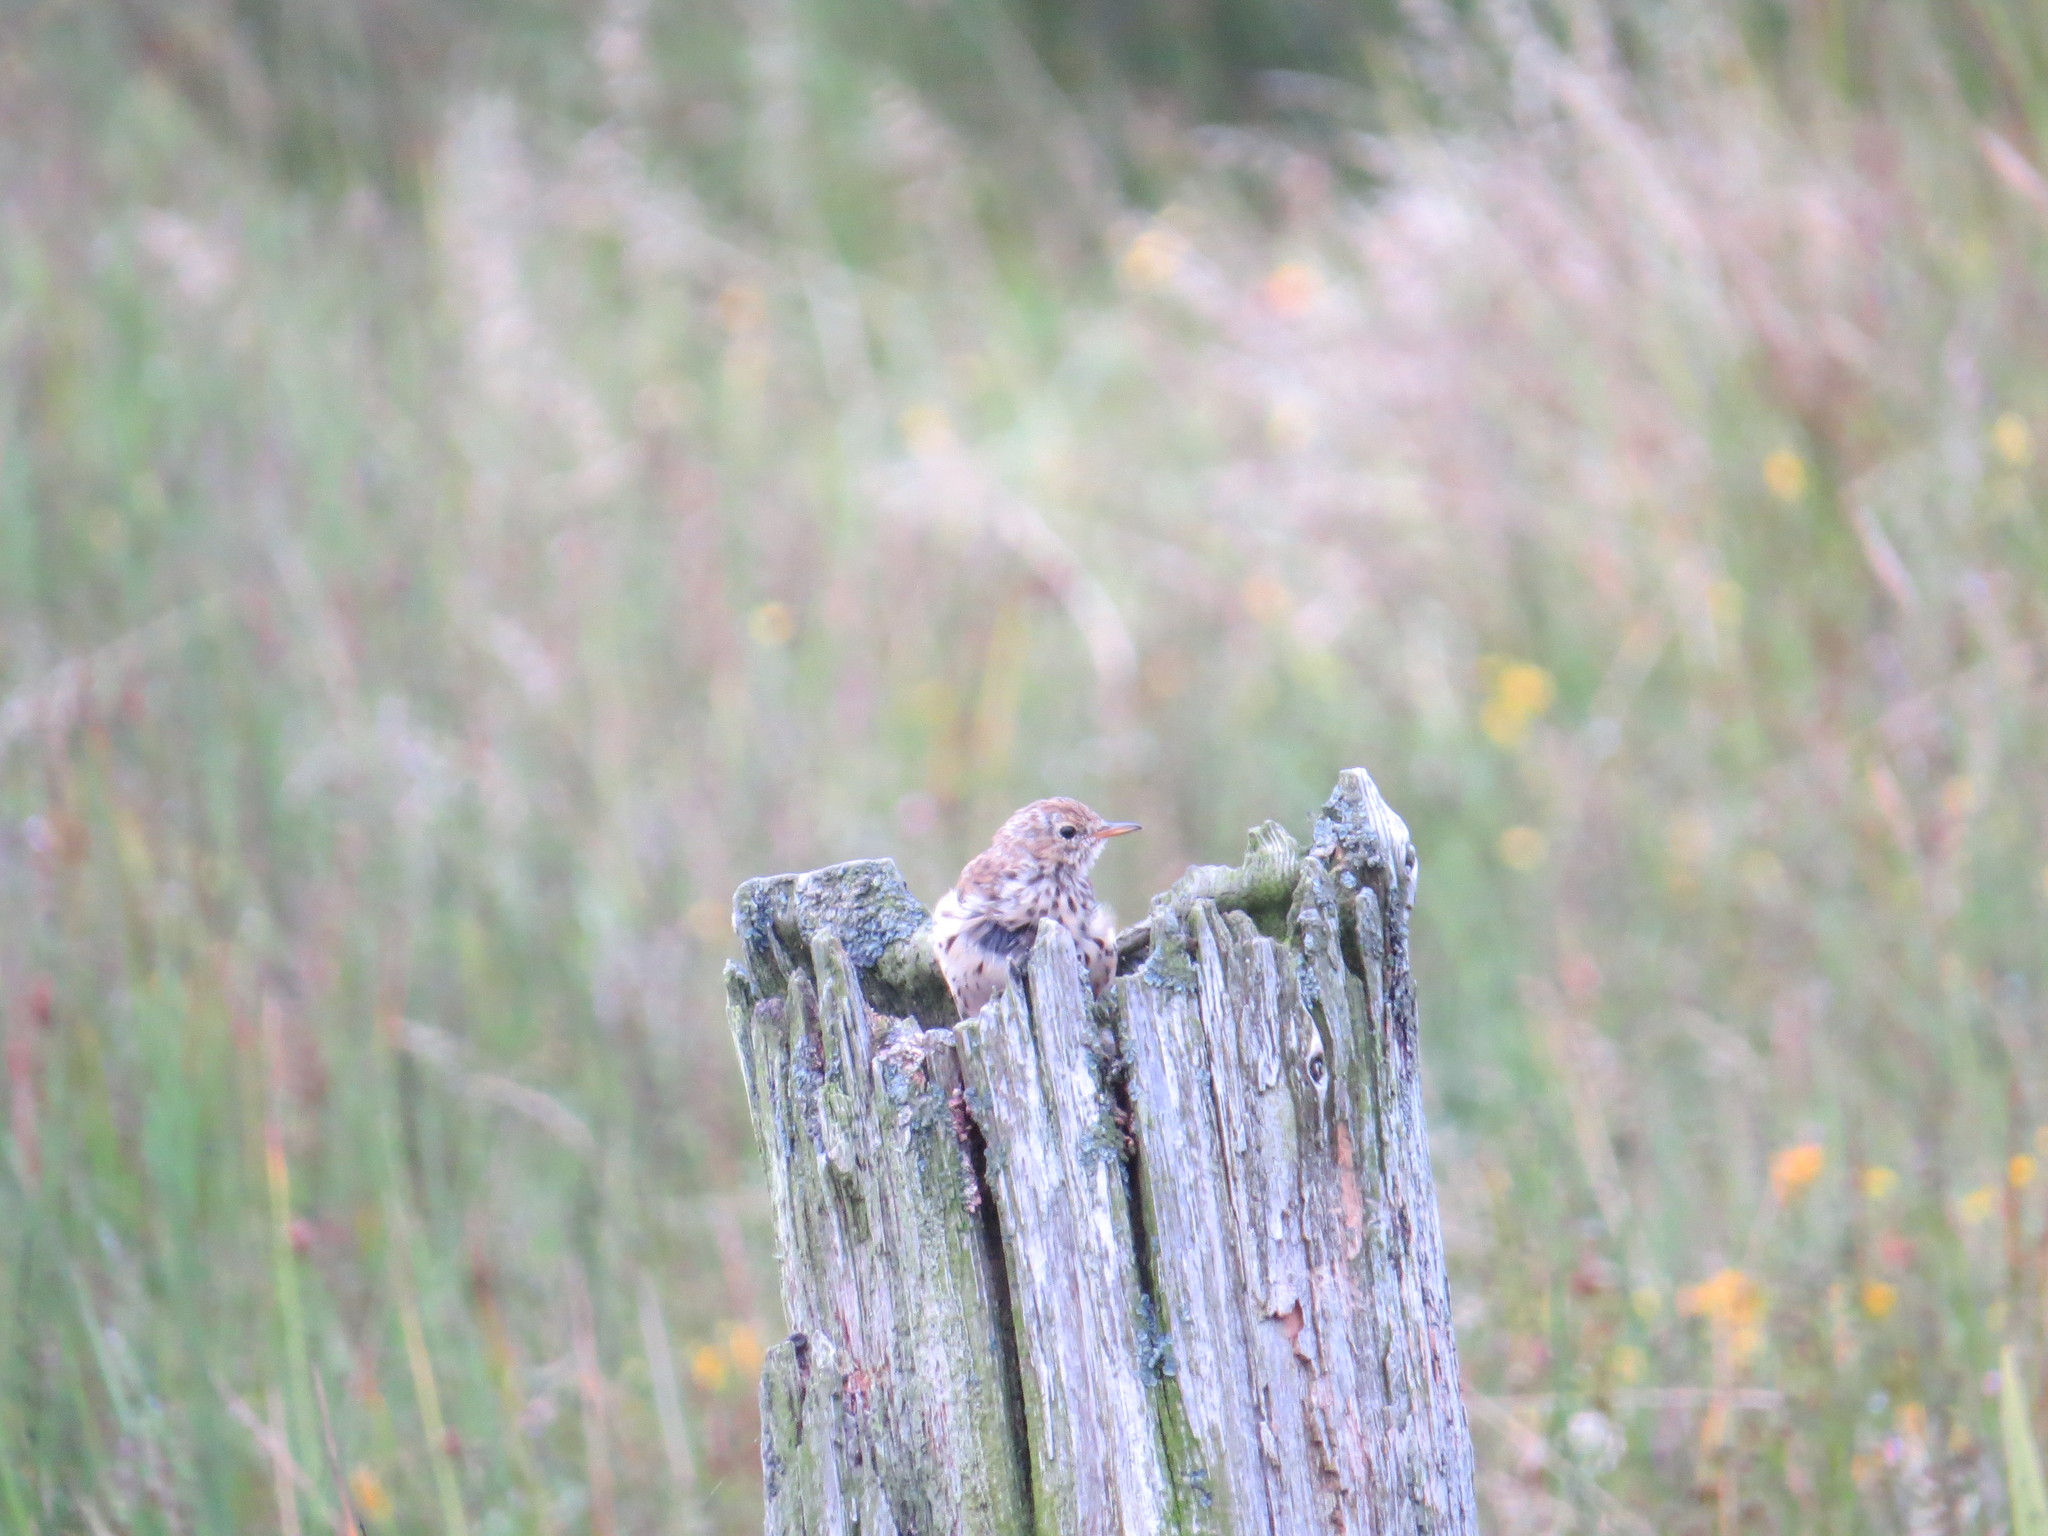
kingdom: Animalia
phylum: Chordata
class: Aves
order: Passeriformes
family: Motacillidae
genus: Anthus
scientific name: Anthus pratensis
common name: Meadow pipit
